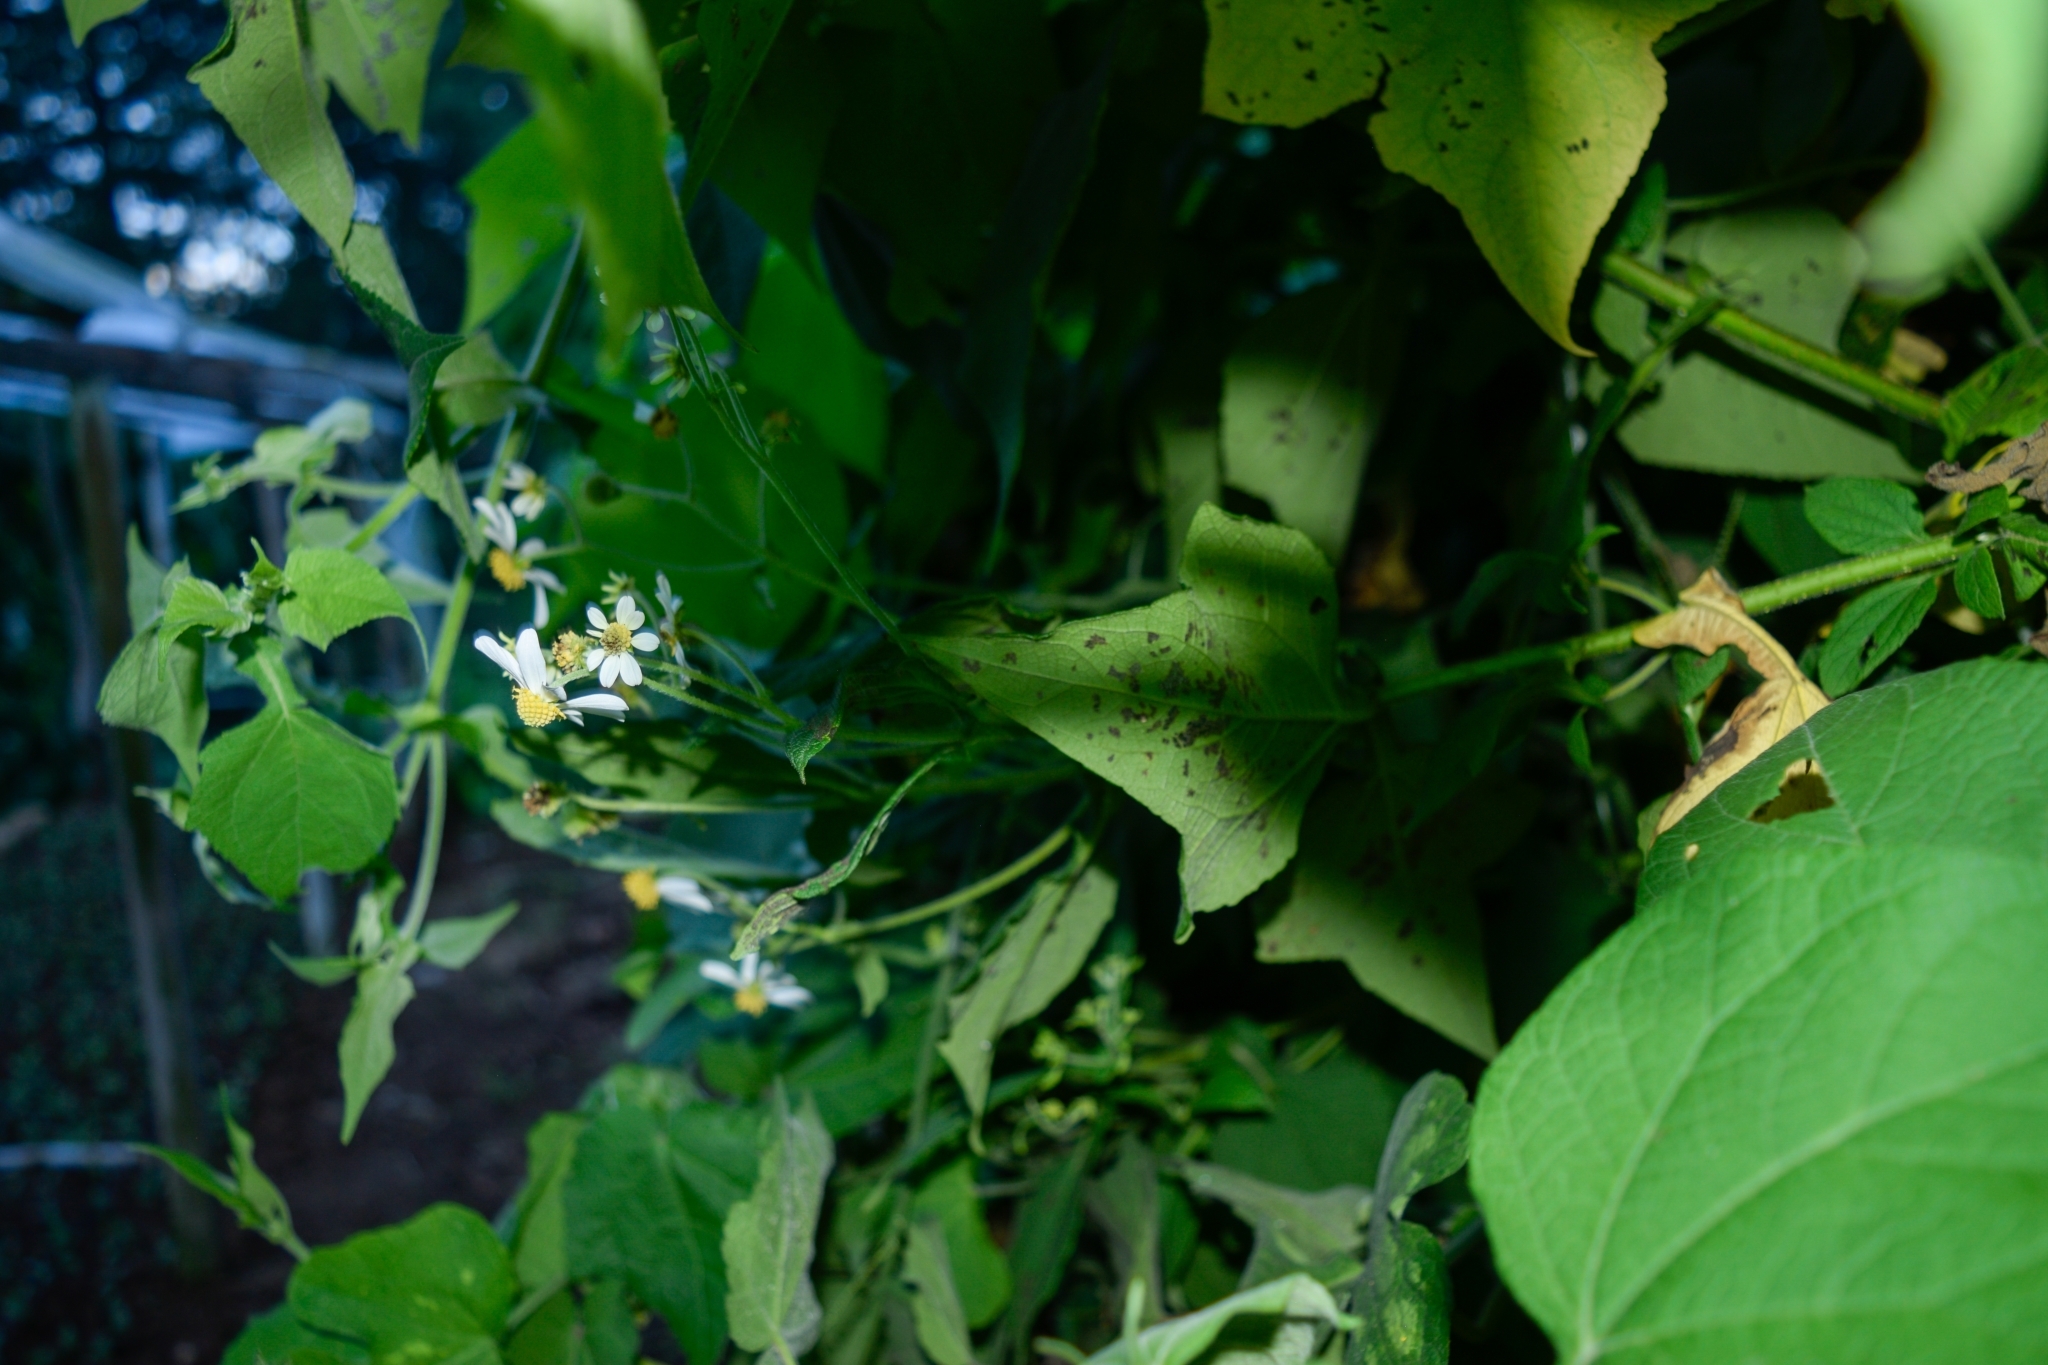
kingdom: Plantae
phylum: Tracheophyta
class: Magnoliopsida
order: Asterales
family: Asteraceae
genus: Montanoa
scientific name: Montanoa atriplicifolia
